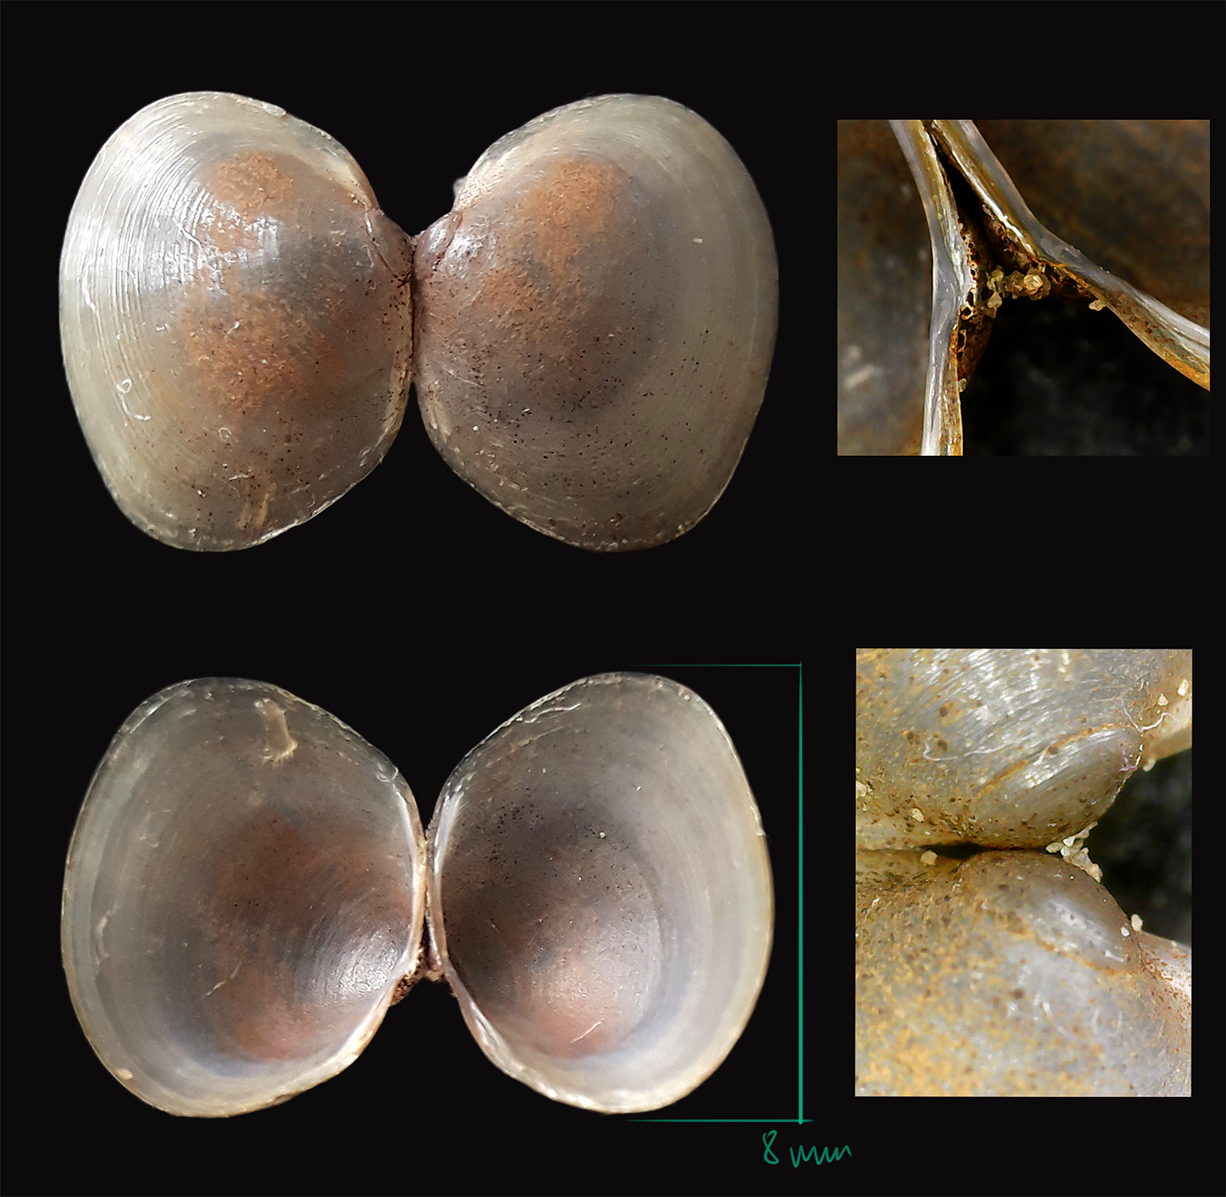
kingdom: Animalia
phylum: Mollusca
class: Bivalvia
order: Sphaeriida
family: Sphaeriidae
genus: Musculium
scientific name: Musculium lacustre
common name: Lake fingernailclam
